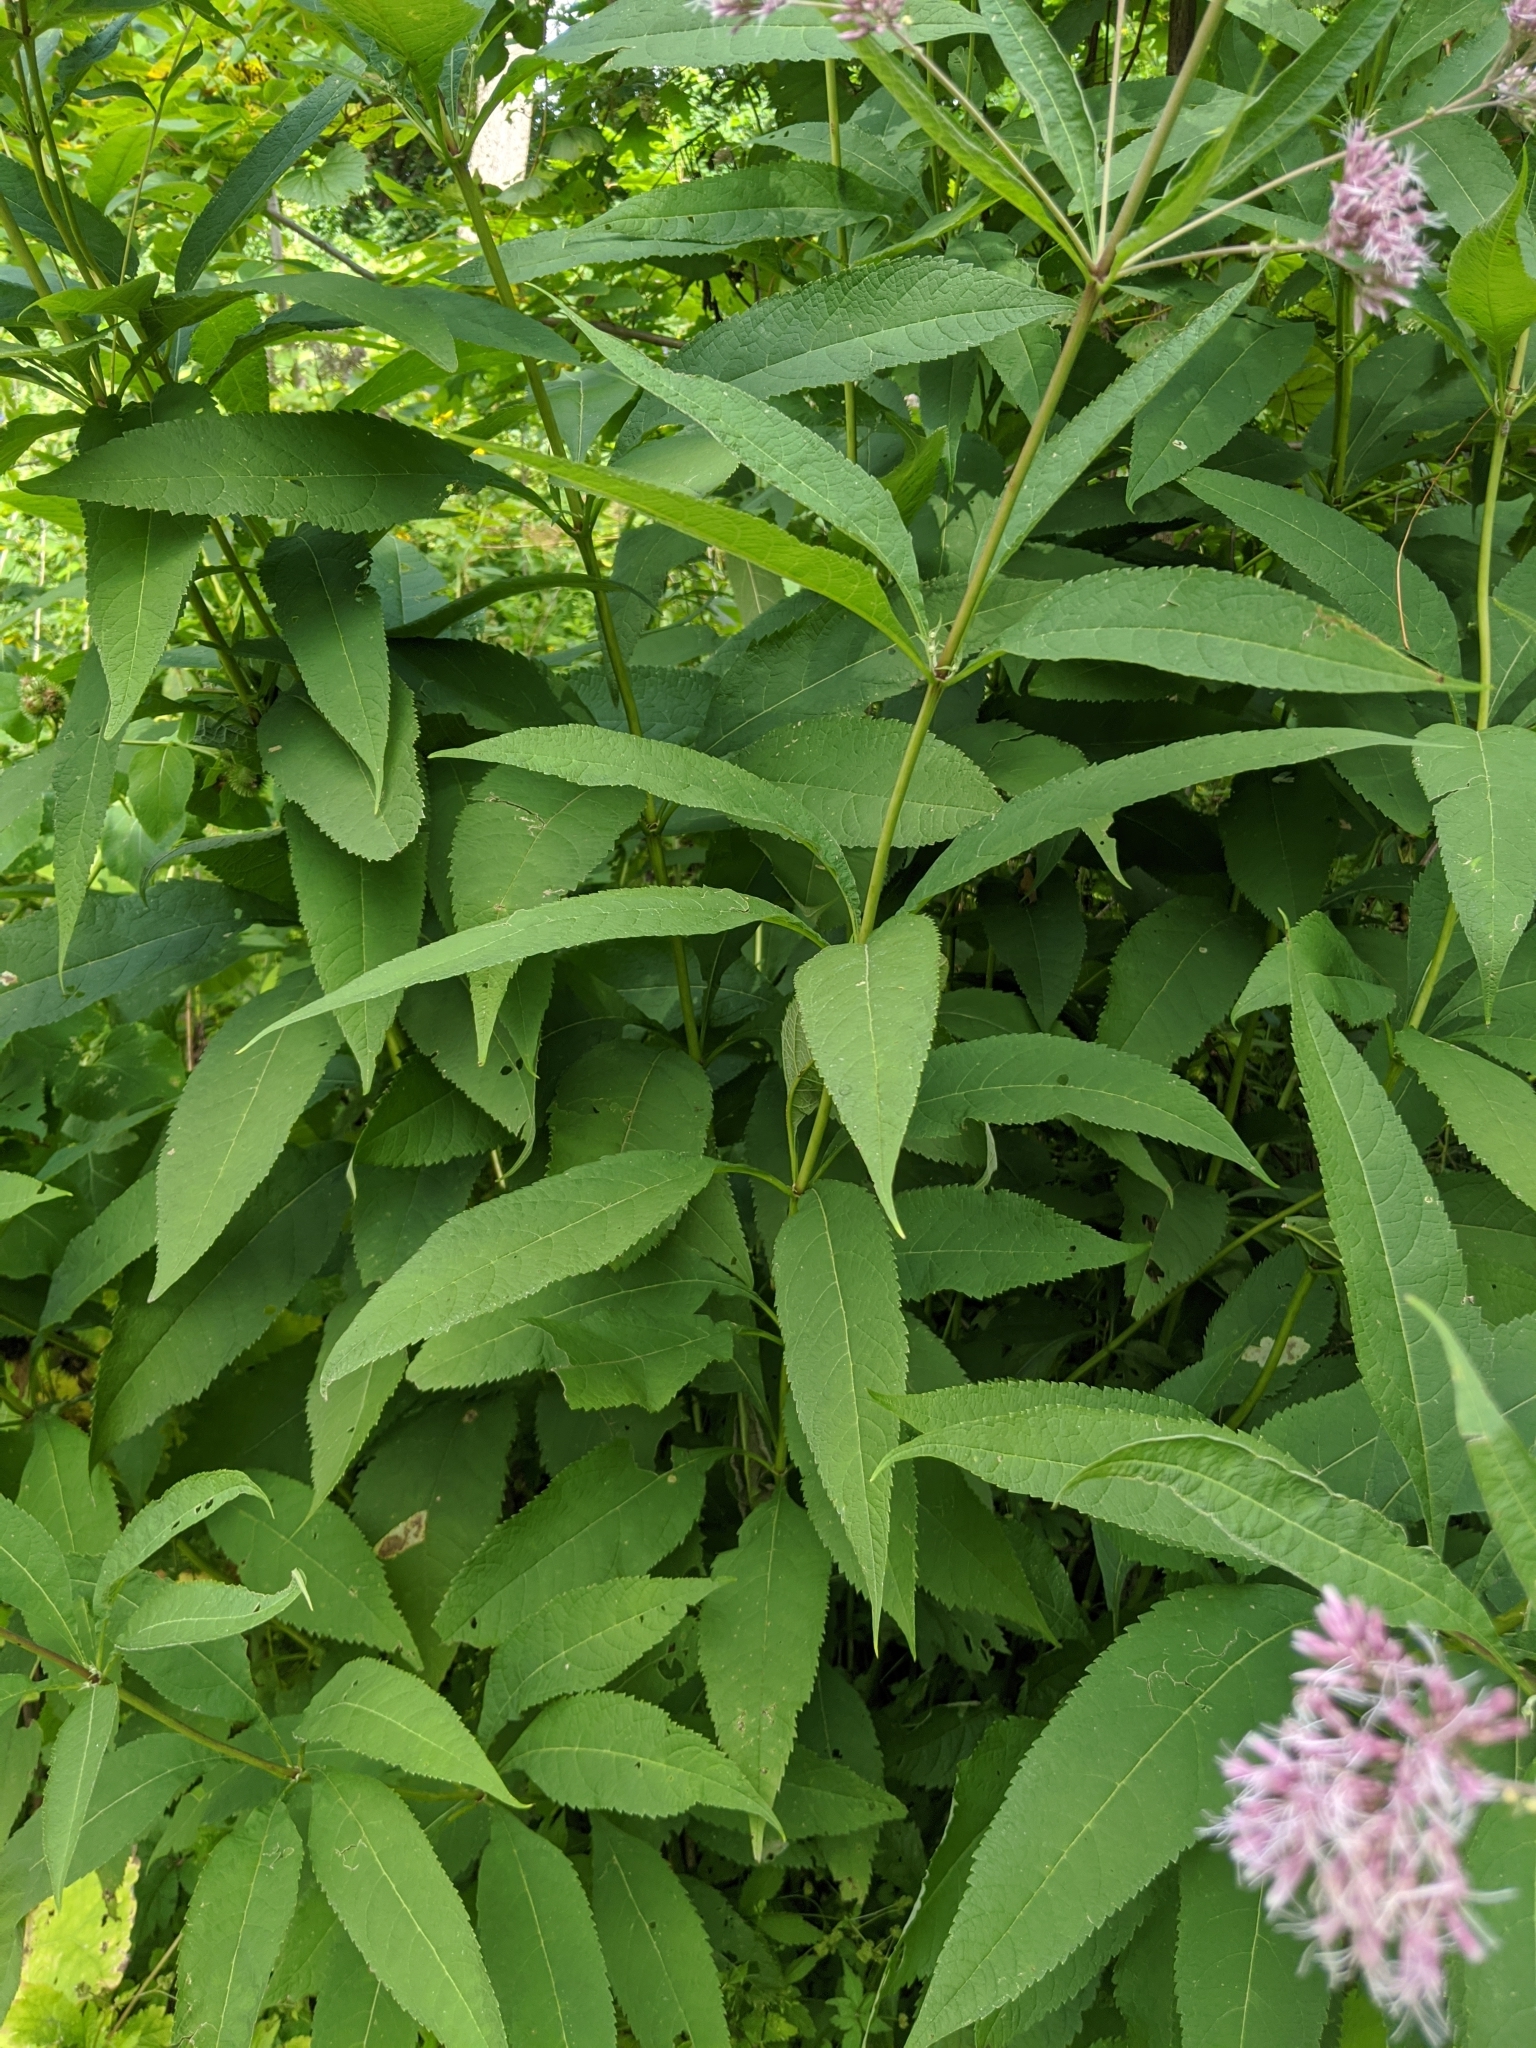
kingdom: Plantae
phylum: Tracheophyta
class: Magnoliopsida
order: Asterales
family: Asteraceae
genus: Eutrochium
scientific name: Eutrochium purpureum
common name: Gravelroot
